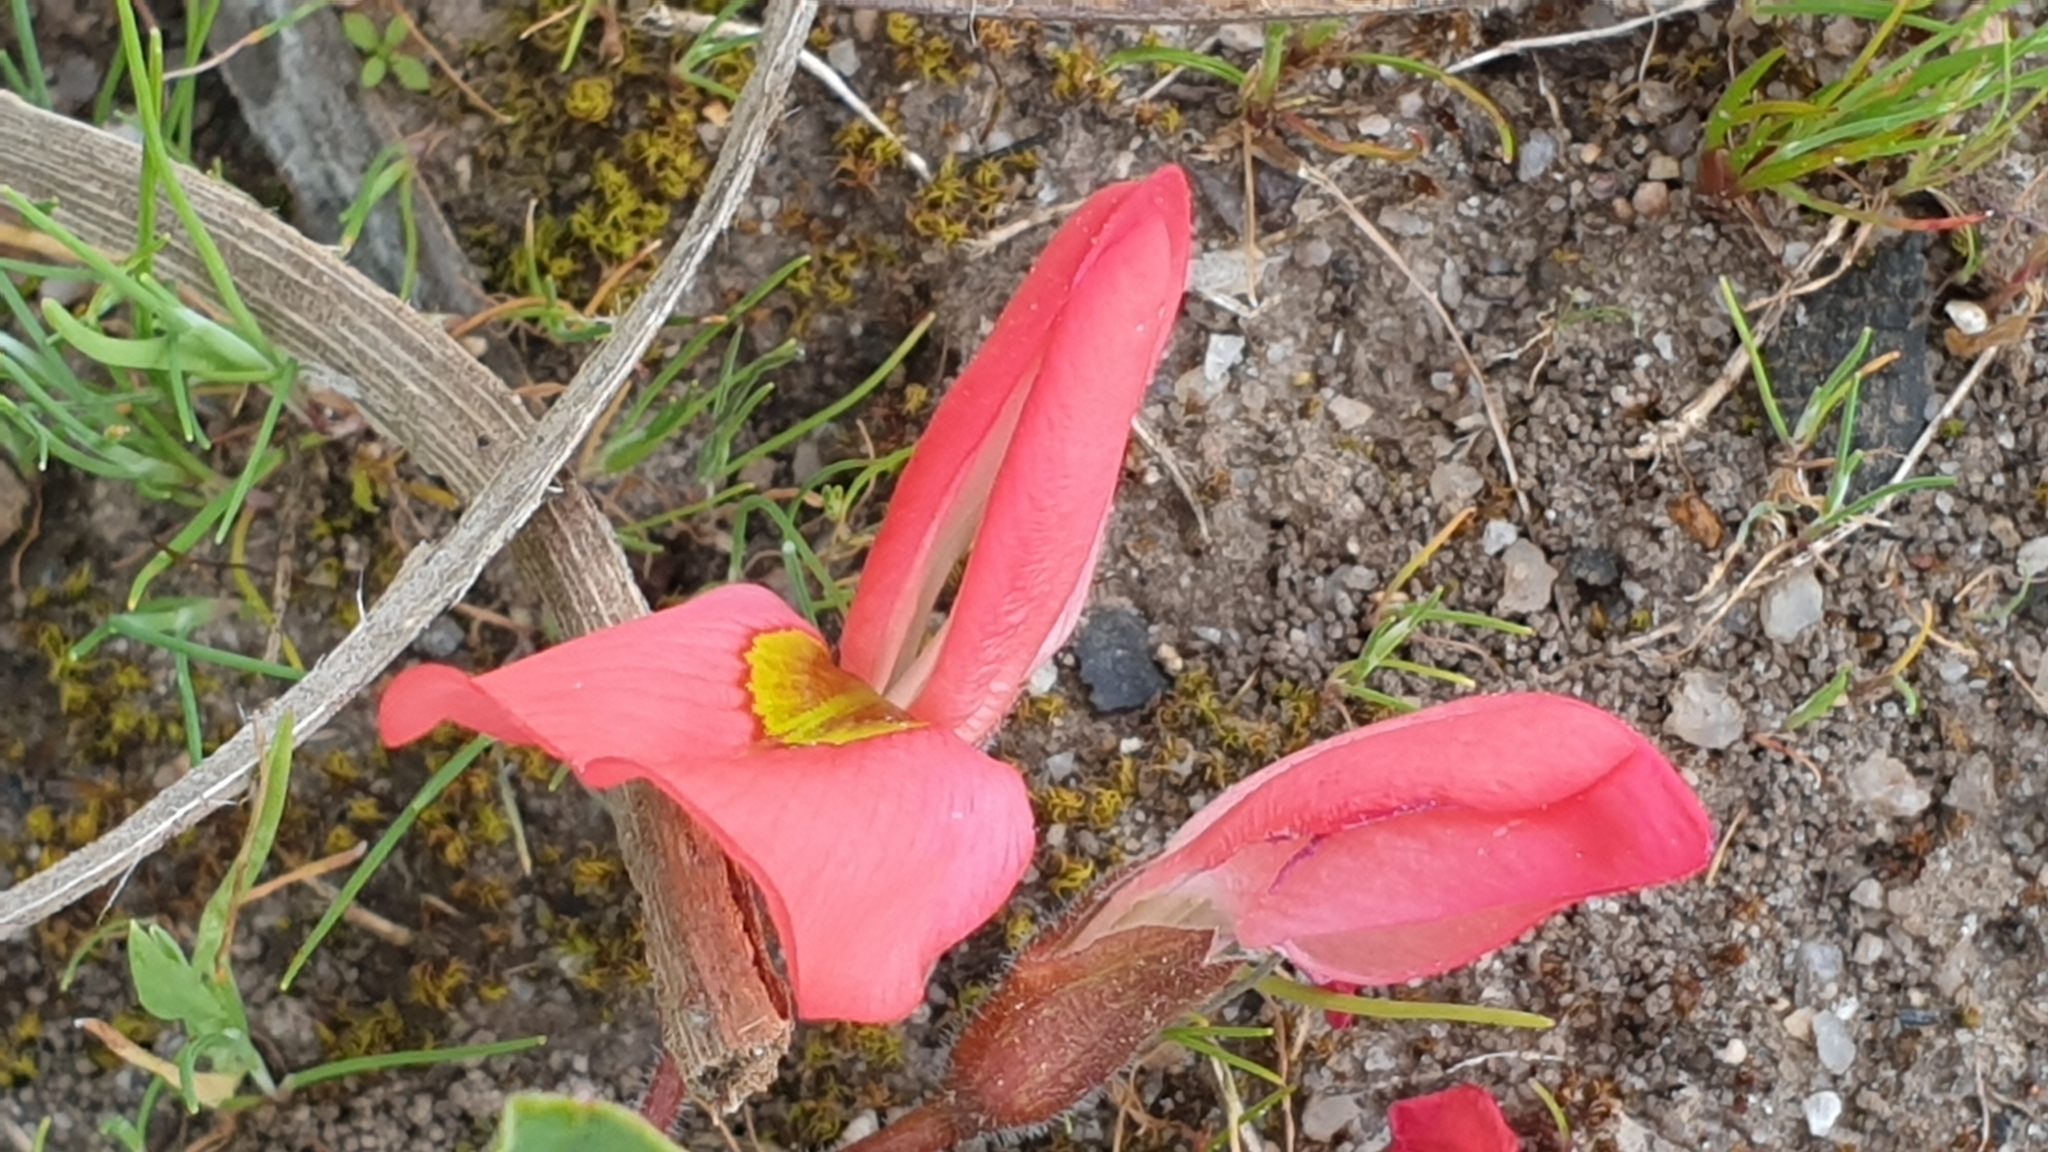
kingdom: Plantae
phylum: Tracheophyta
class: Magnoliopsida
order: Fabales
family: Fabaceae
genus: Kennedia
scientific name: Kennedia prostrata
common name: Running-postman
